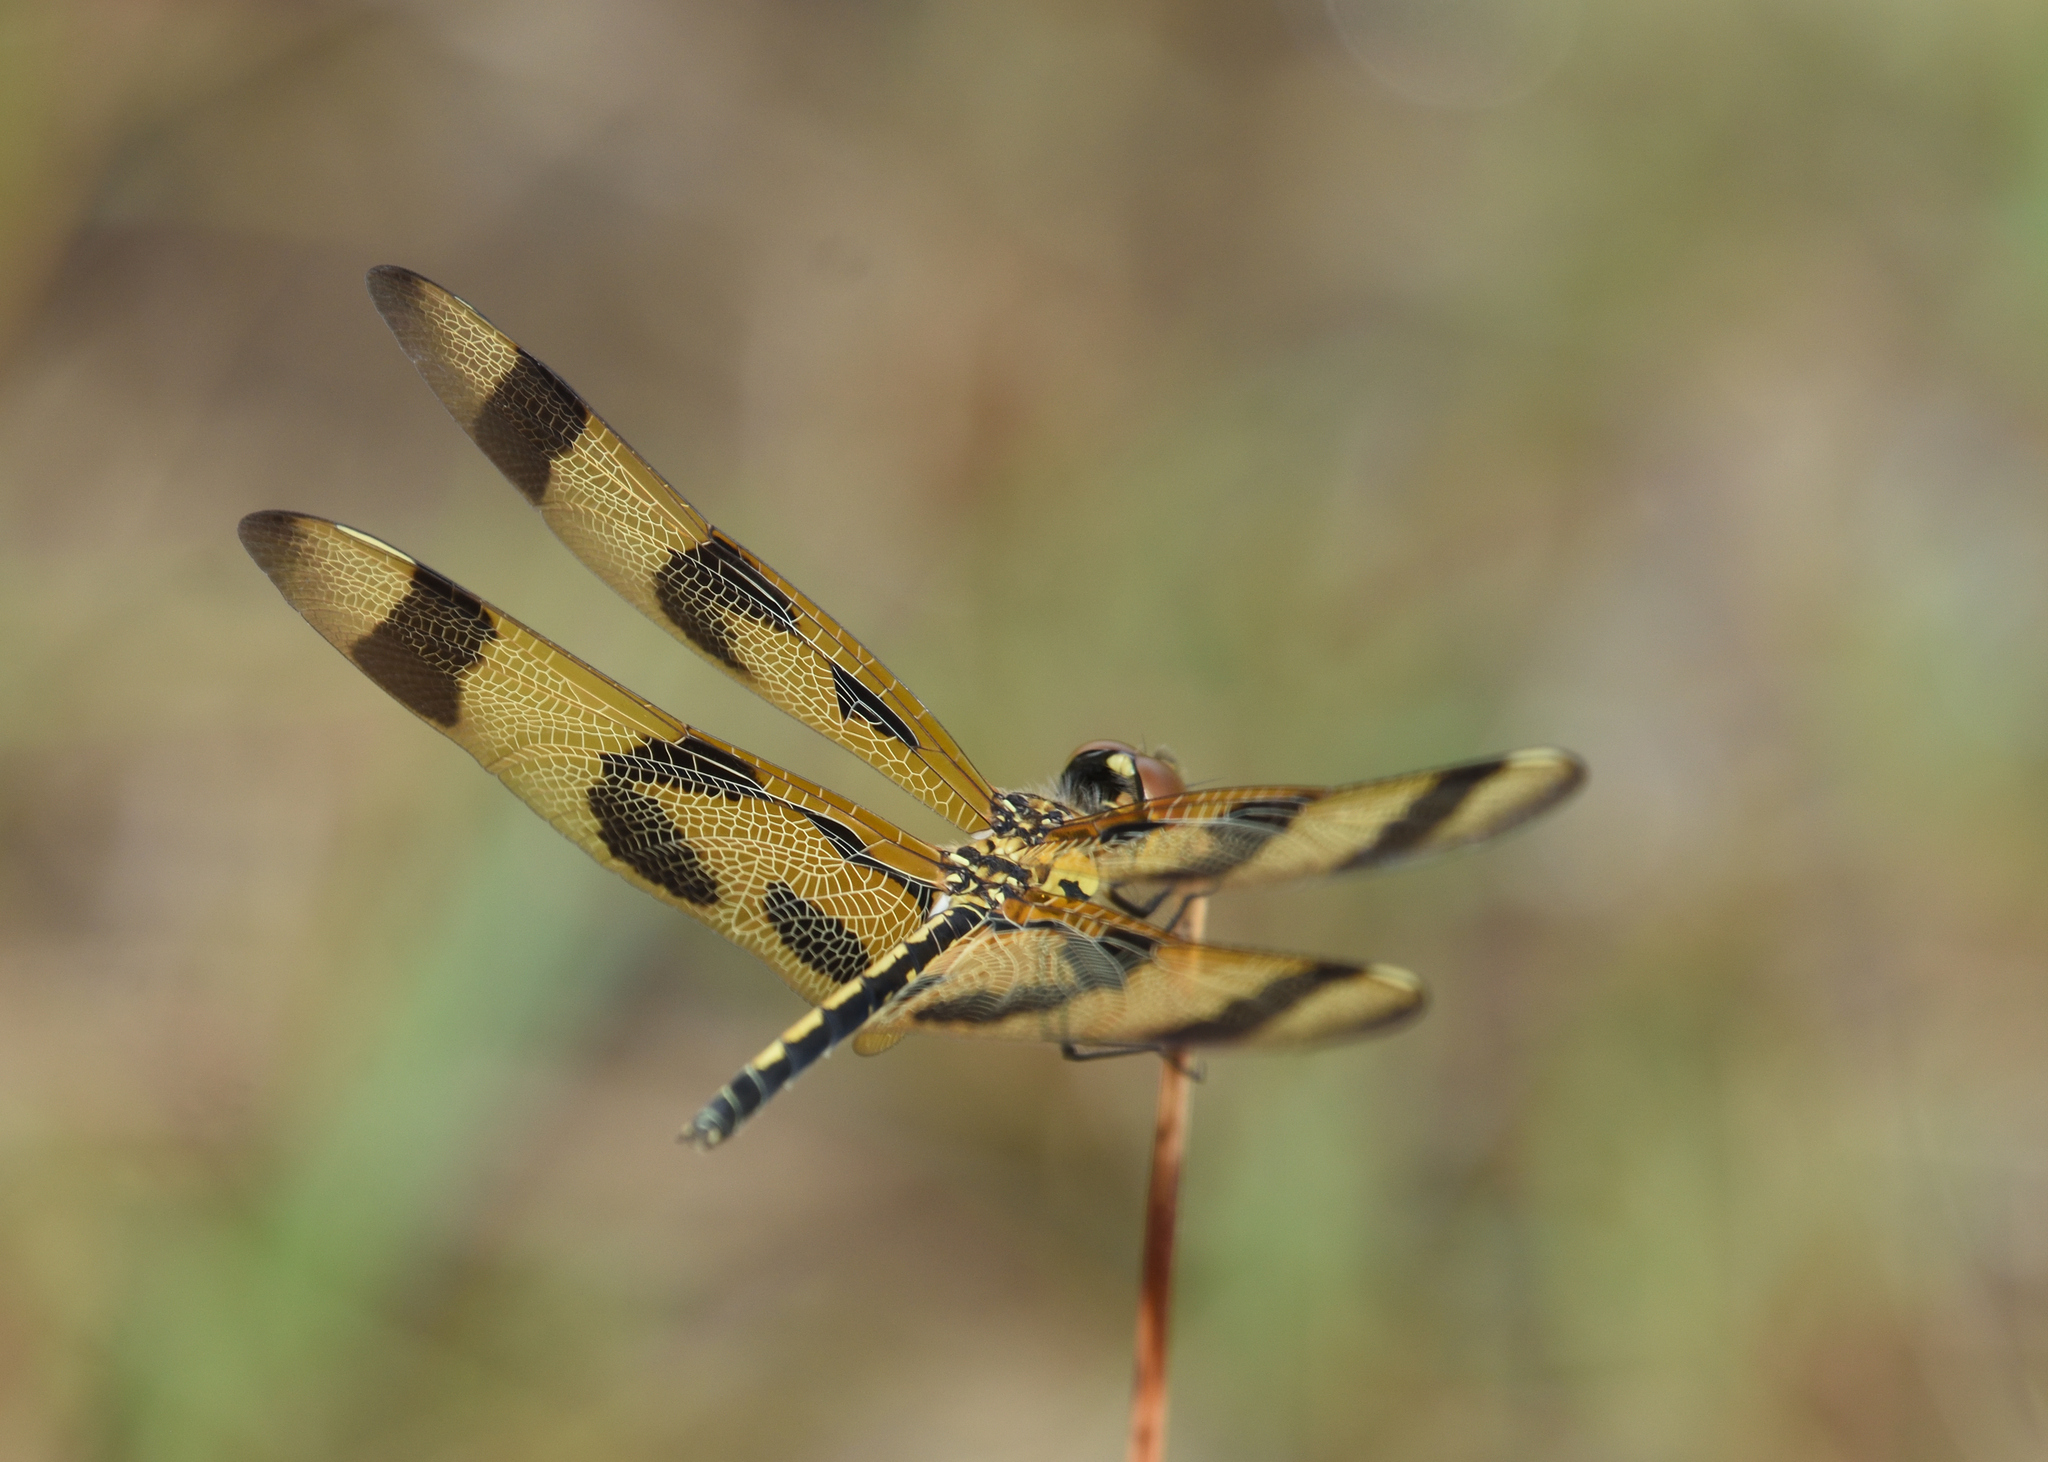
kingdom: Animalia
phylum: Arthropoda
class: Insecta
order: Odonata
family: Libellulidae
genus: Celithemis
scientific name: Celithemis eponina
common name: Halloween pennant
